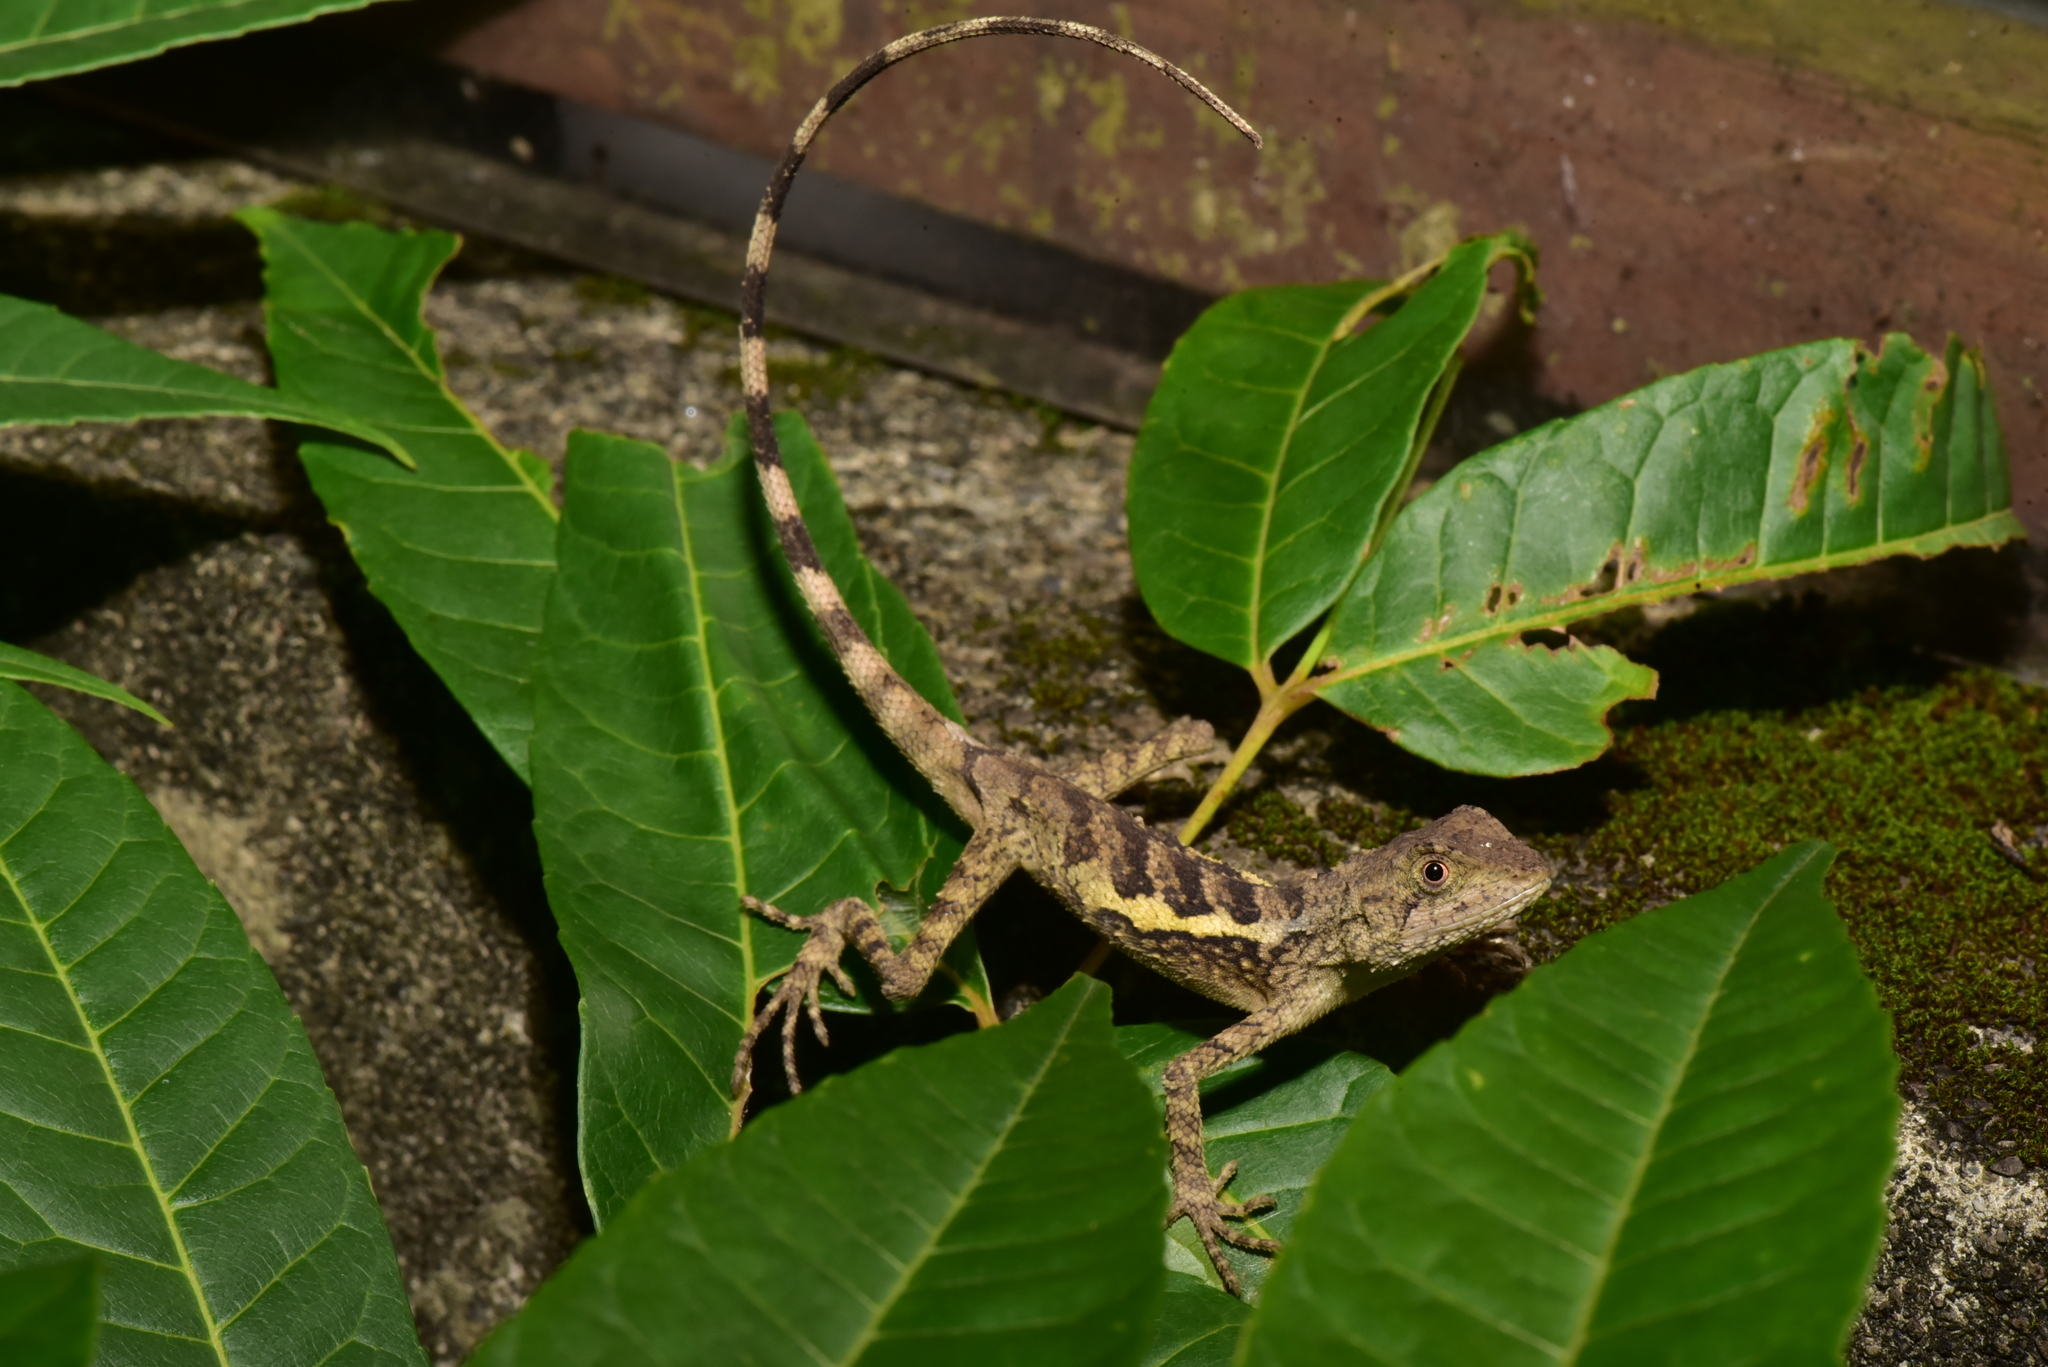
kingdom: Animalia
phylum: Chordata
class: Squamata
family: Agamidae
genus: Diploderma
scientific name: Diploderma swinhonis
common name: Taiwan japalure
